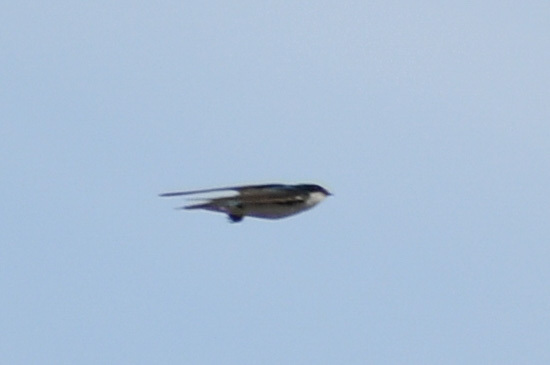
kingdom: Animalia
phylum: Chordata
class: Aves
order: Passeriformes
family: Hirundinidae
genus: Tachycineta
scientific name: Tachycineta bicolor
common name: Tree swallow
